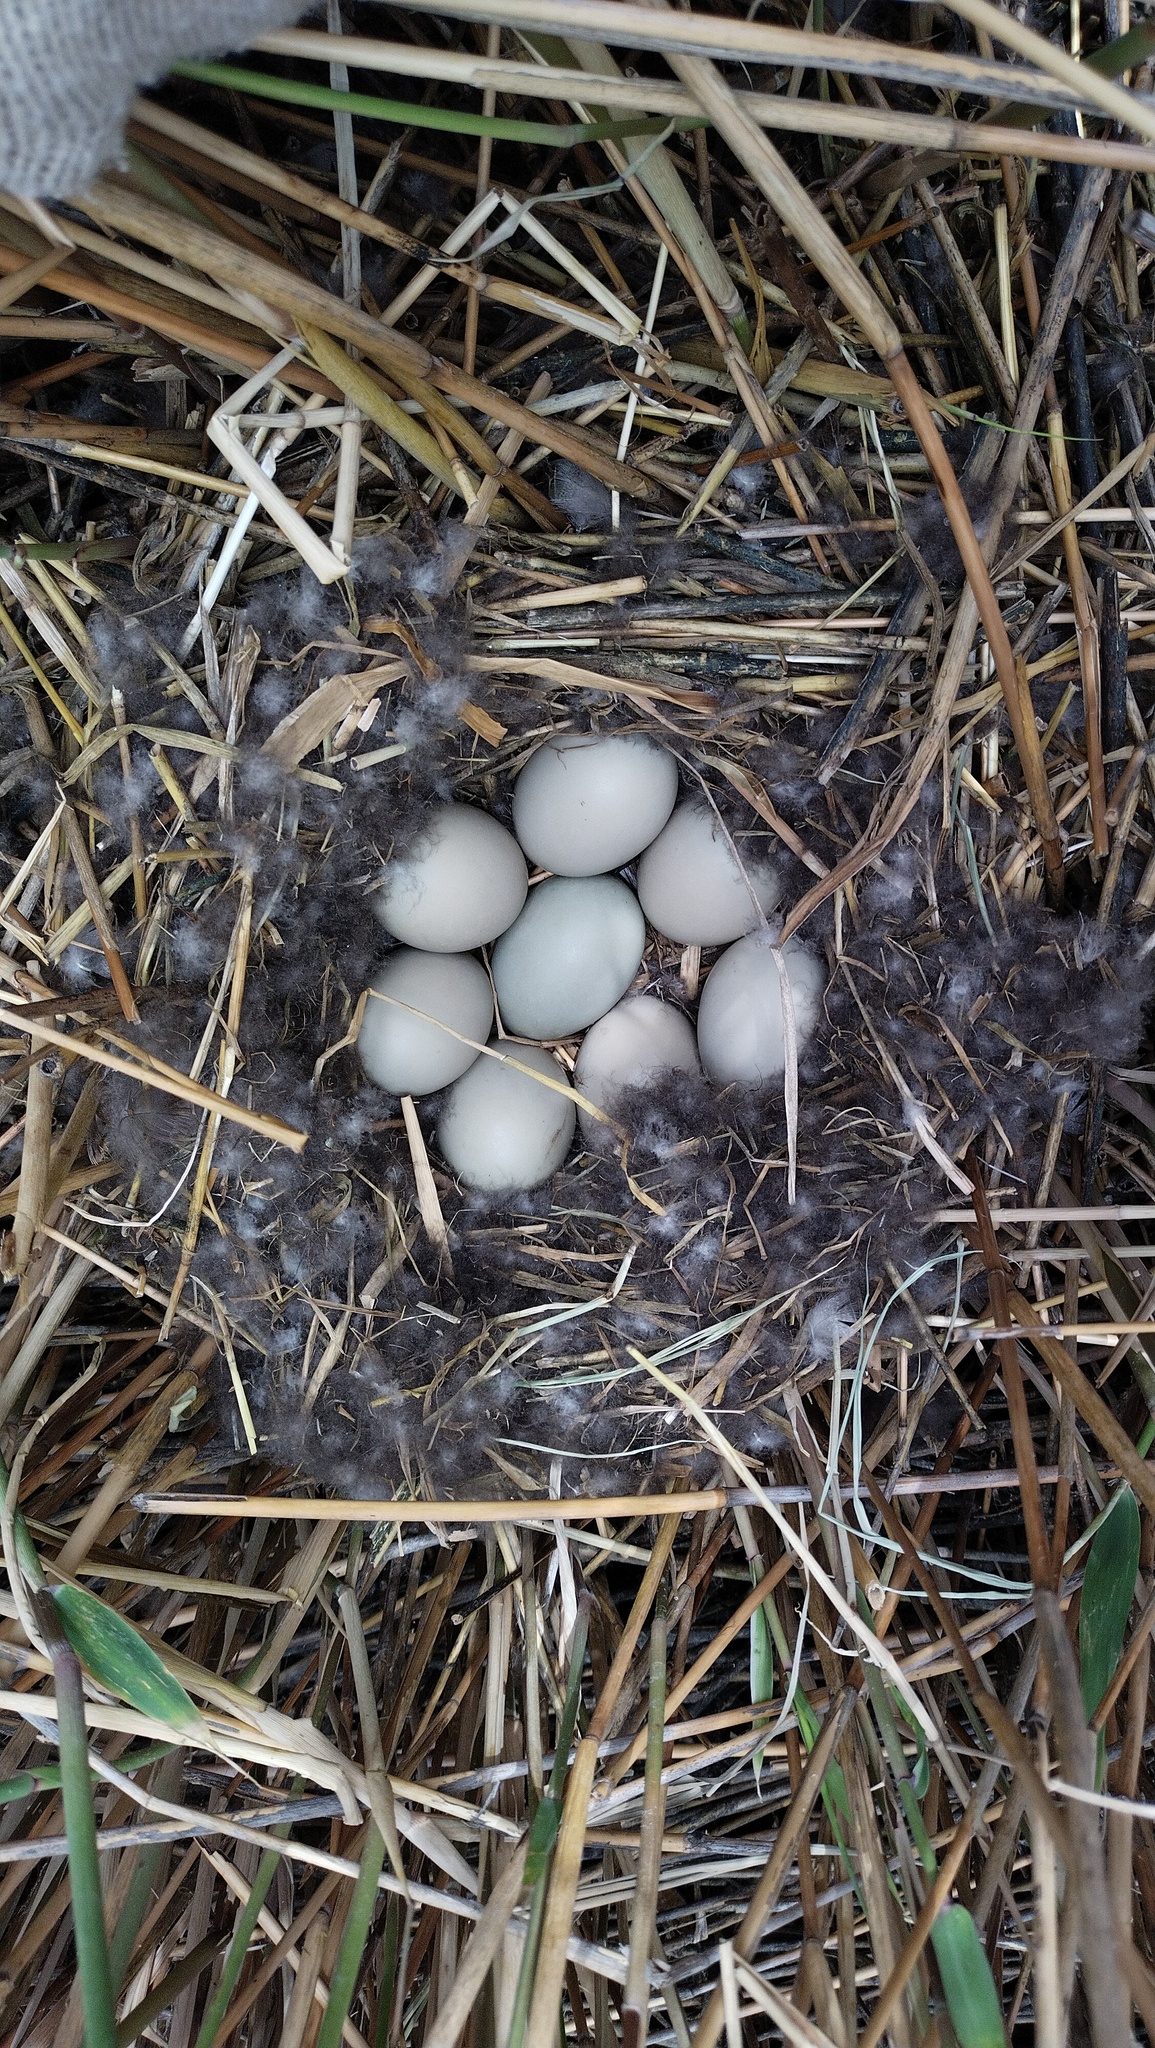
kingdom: Animalia
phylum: Chordata
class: Aves
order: Anseriformes
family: Anatidae
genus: Aythya
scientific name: Aythya ferina
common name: Common pochard
